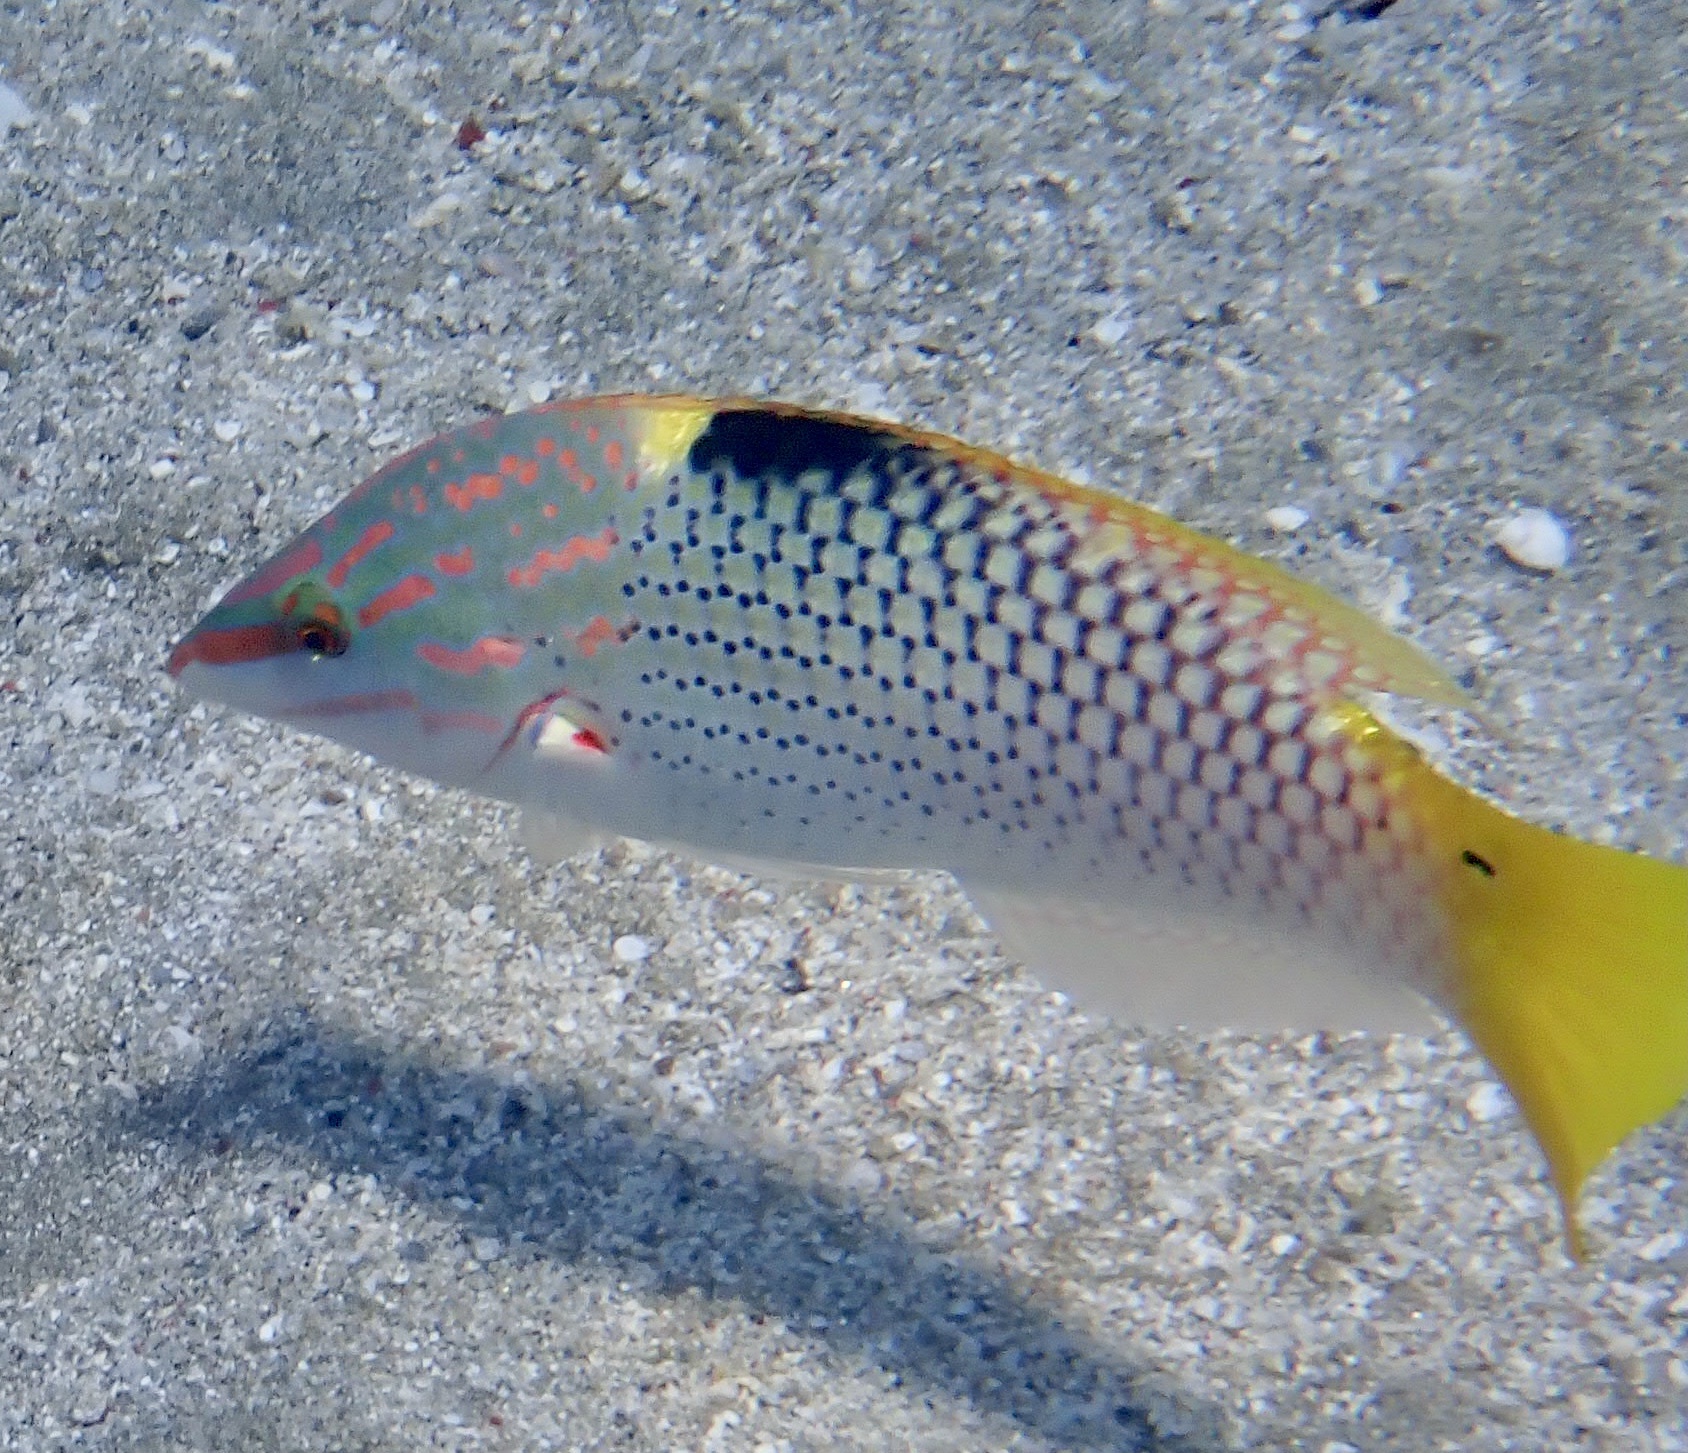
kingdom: Animalia
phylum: Chordata
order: Perciformes
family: Labridae
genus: Halichoeres
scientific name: Halichoeres hortulanus
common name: Checkerboard wrasse
